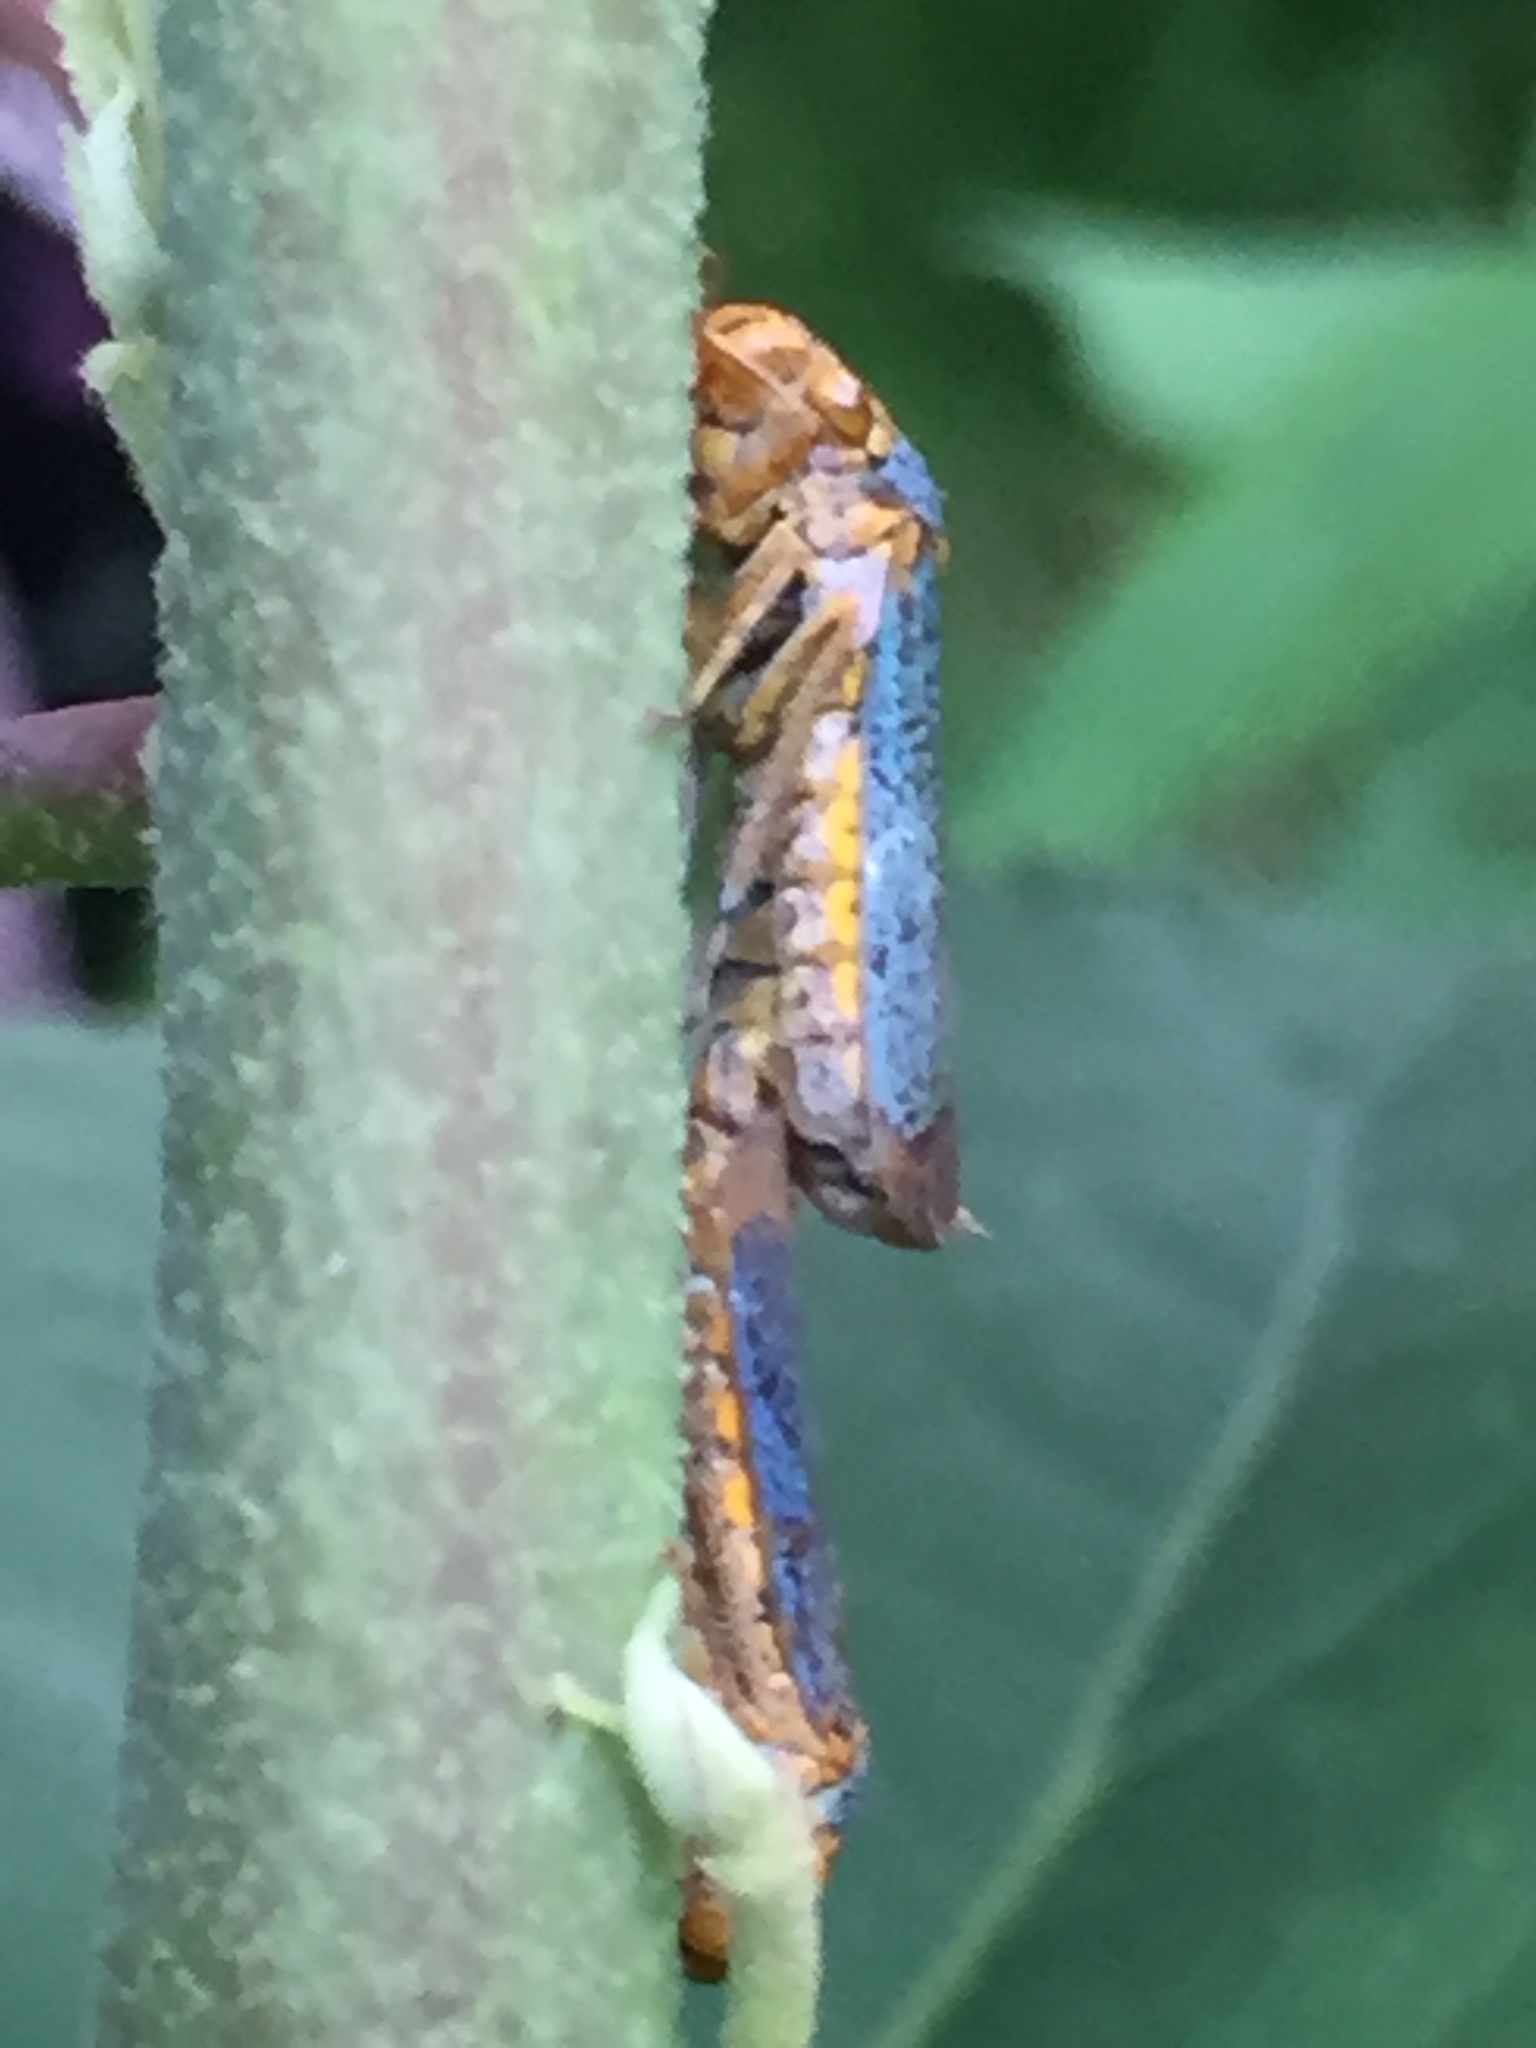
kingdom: Animalia
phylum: Arthropoda
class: Insecta
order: Hemiptera
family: Cicadellidae
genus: Oncometopia
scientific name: Oncometopia orbona
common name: Broad-headed sharpshooter
